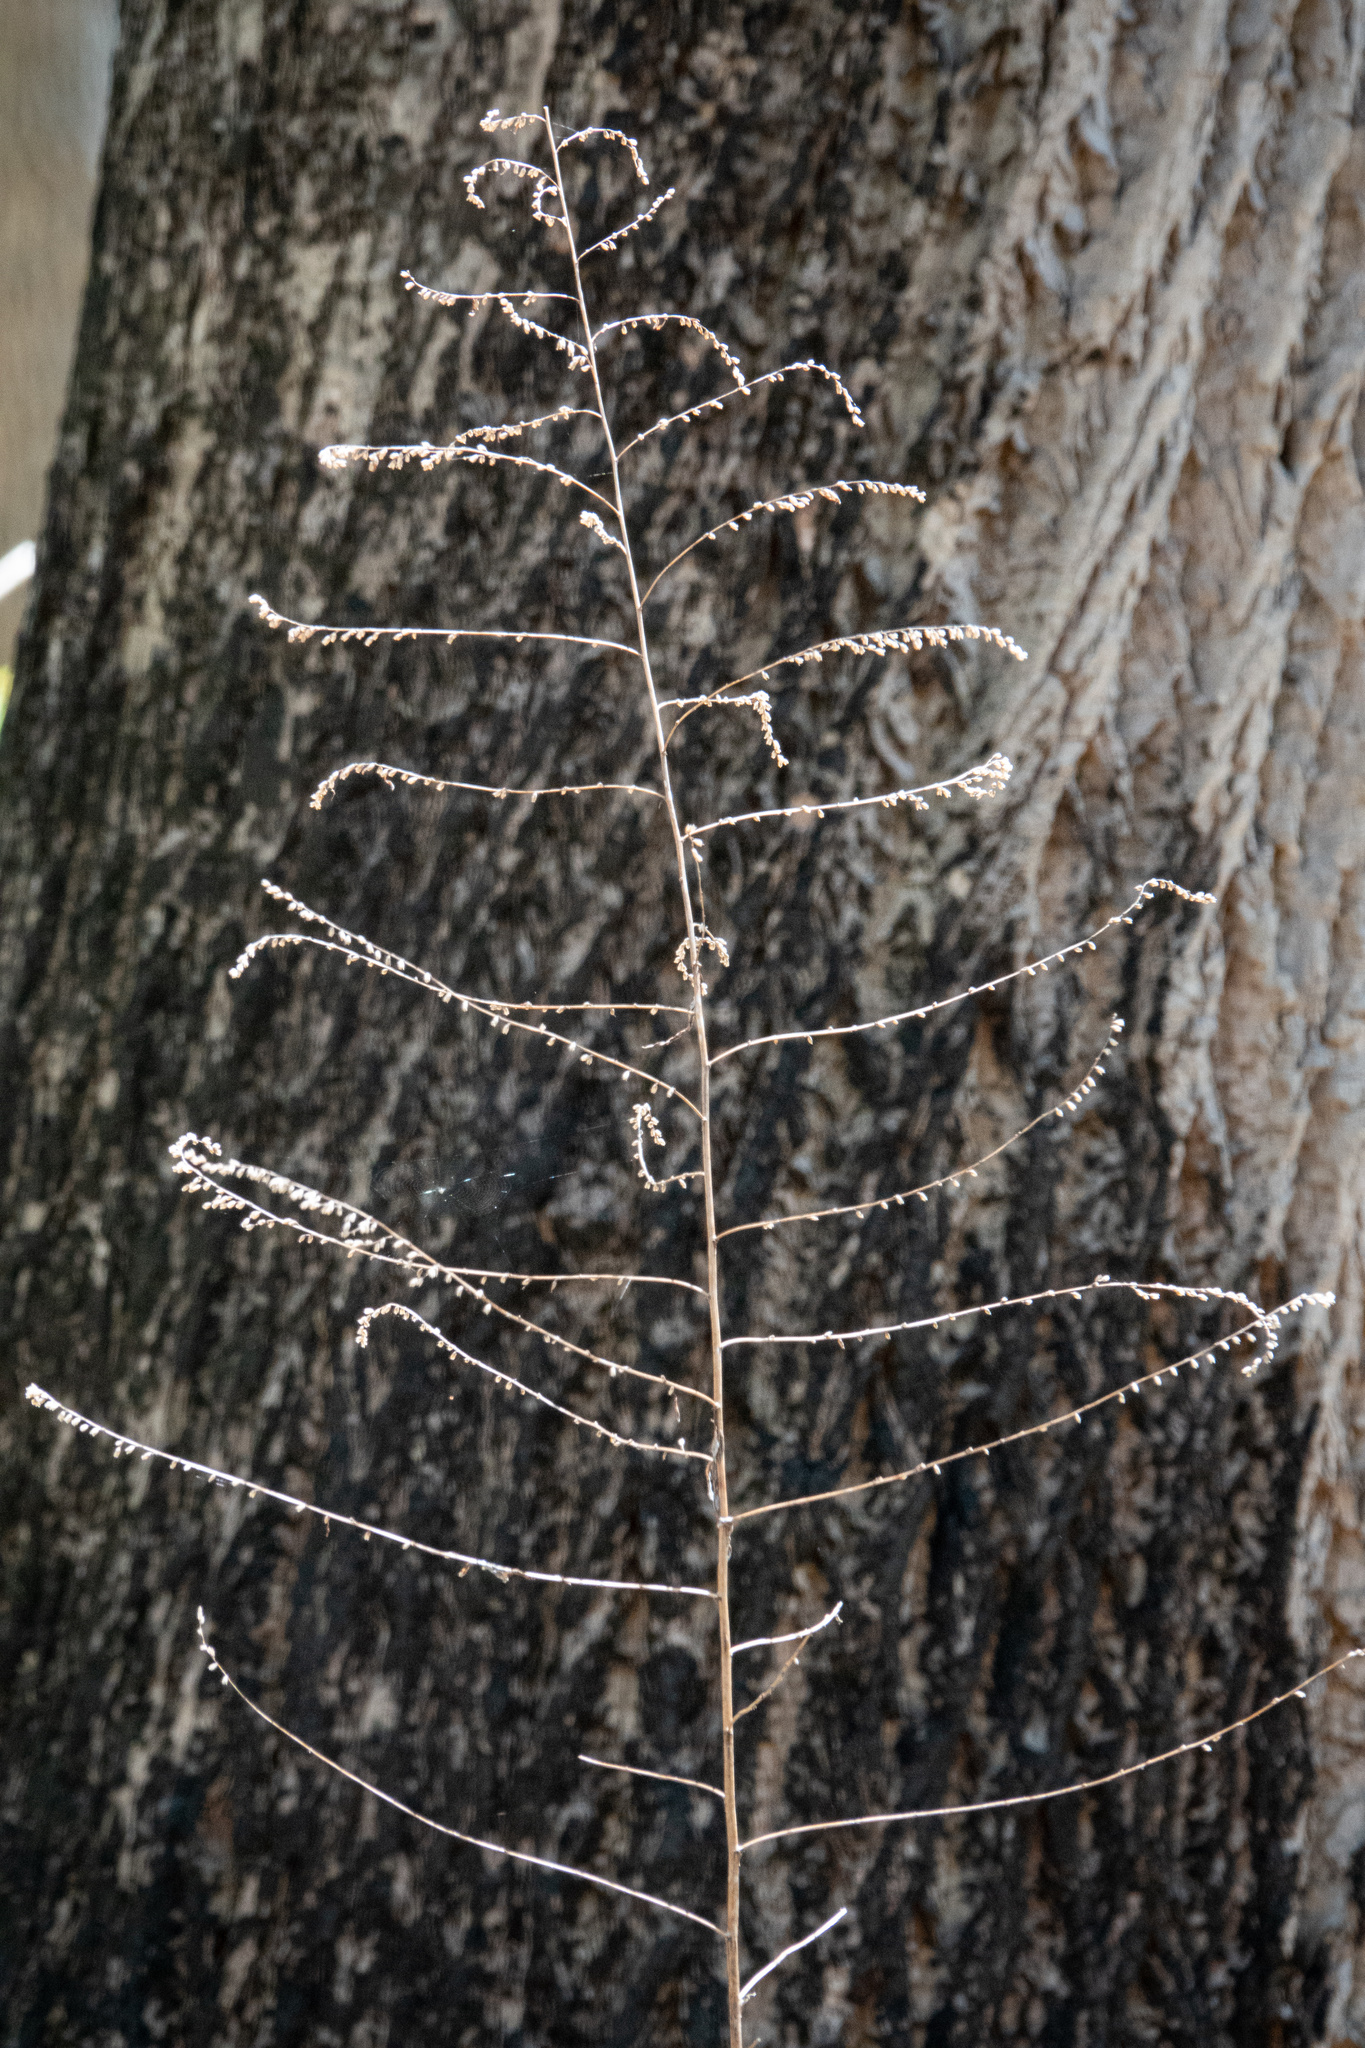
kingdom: Plantae
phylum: Tracheophyta
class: Magnoliopsida
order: Asterales
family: Asteraceae
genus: Artemisia
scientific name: Artemisia vulgaris
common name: Mugwort
